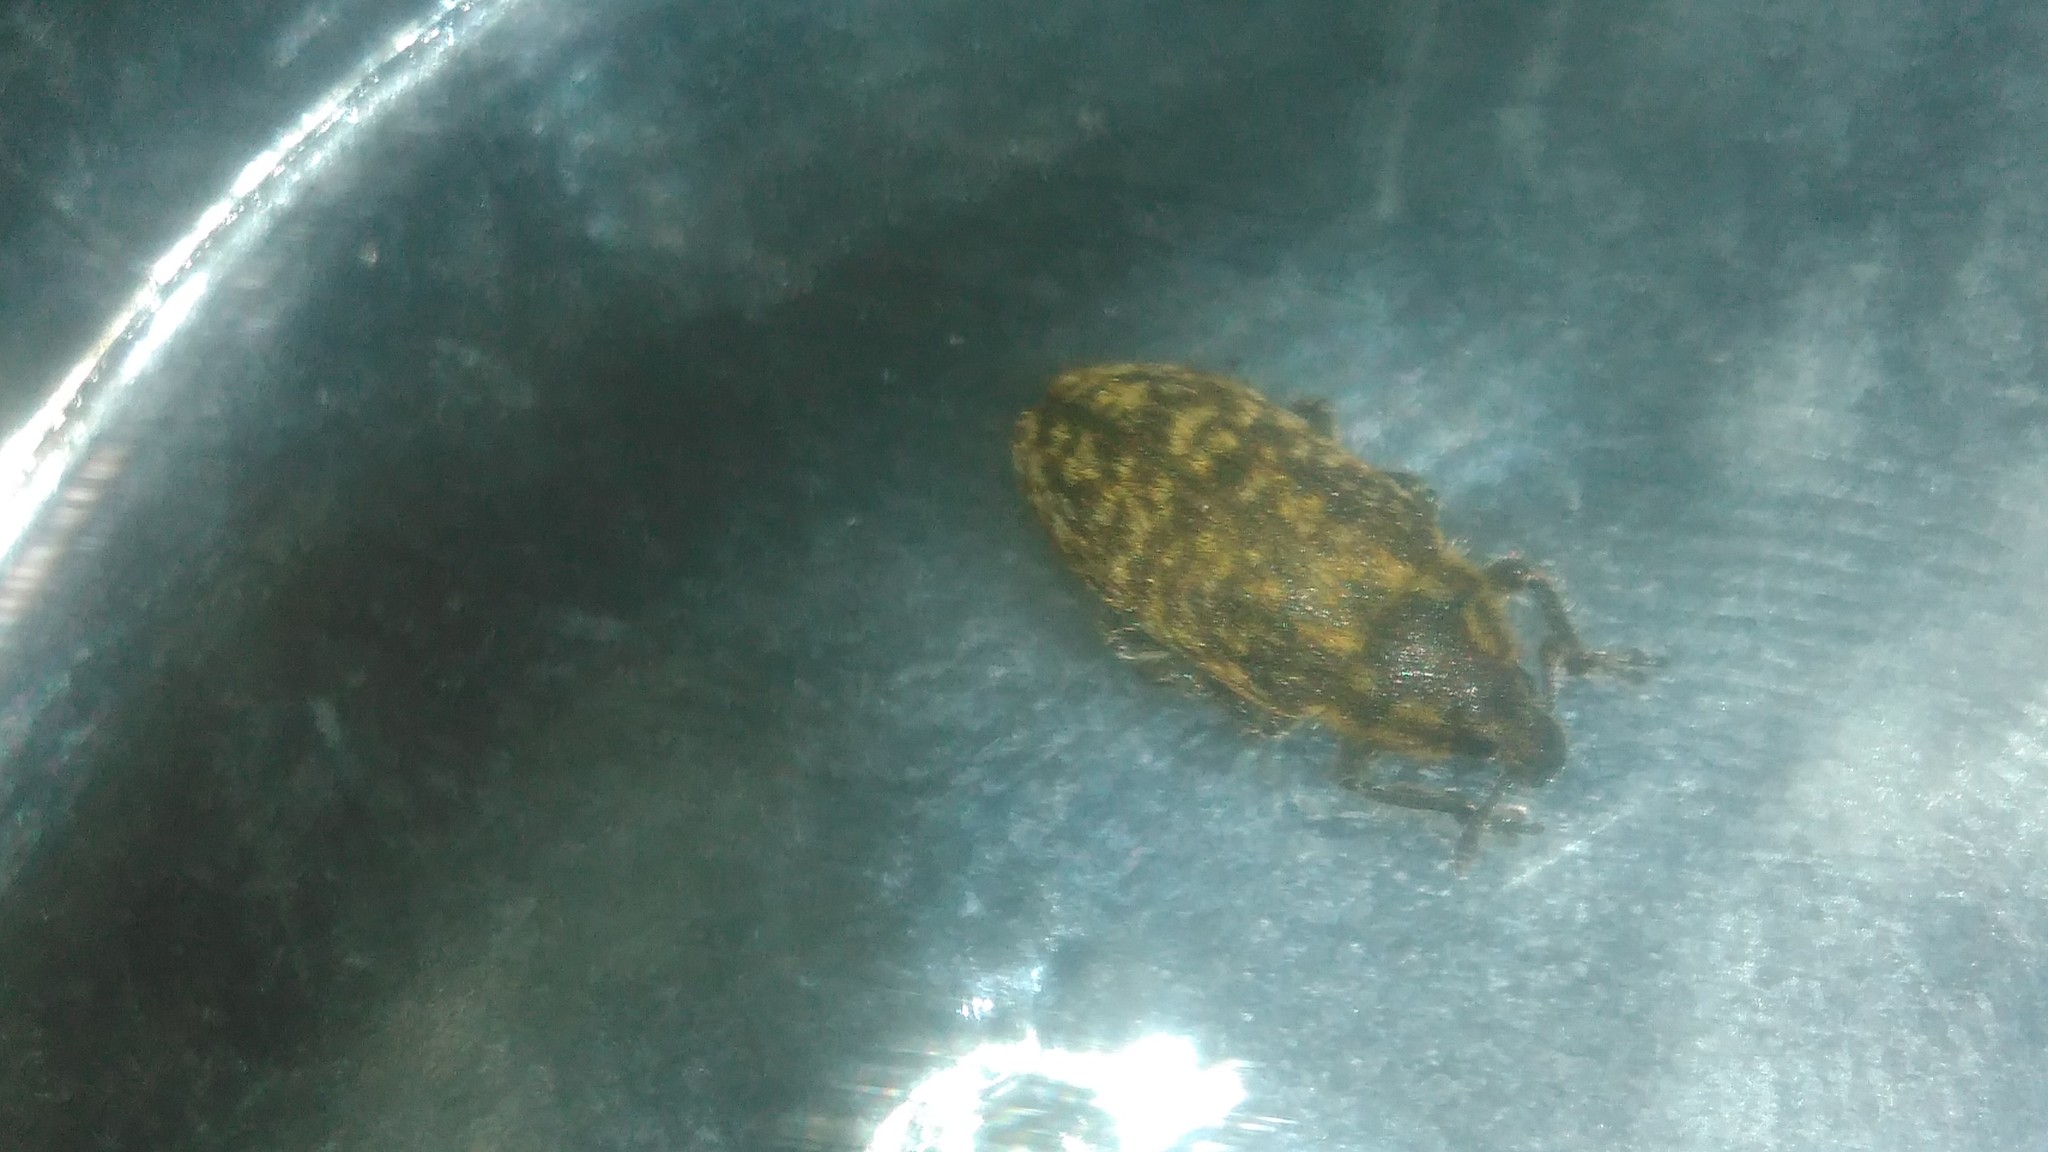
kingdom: Animalia
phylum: Arthropoda
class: Insecta
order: Coleoptera
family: Curculionidae
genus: Rhinocyllus
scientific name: Rhinocyllus conicus
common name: Weevil
